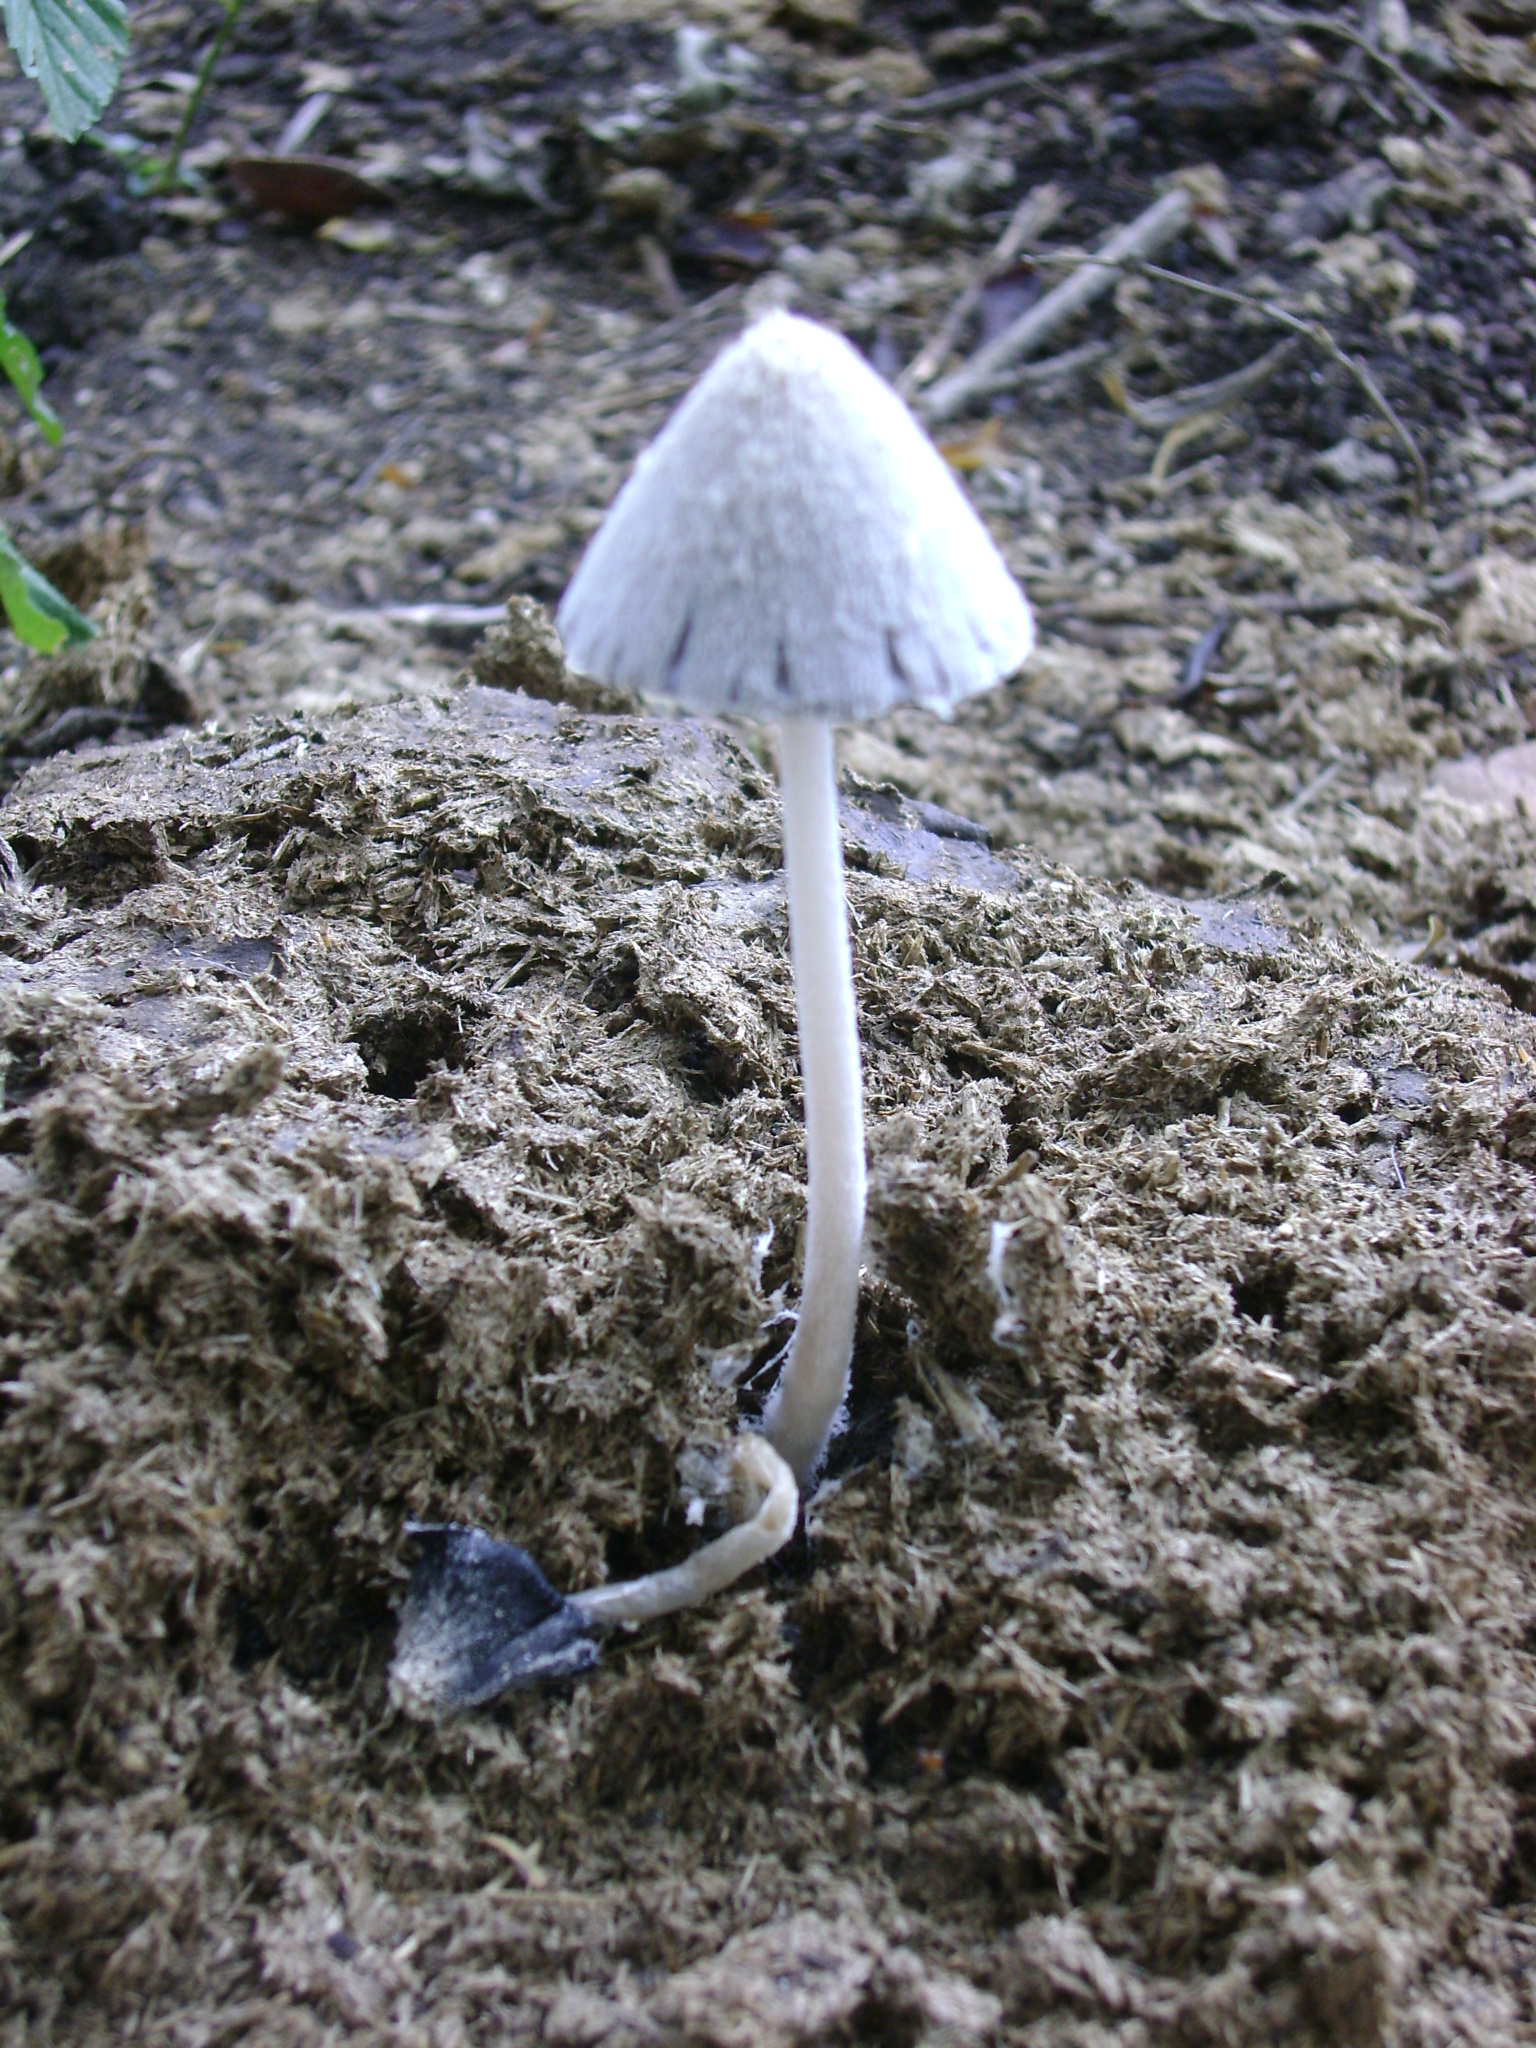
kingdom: Fungi
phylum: Basidiomycota
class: Agaricomycetes
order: Agaricales
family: Psathyrellaceae
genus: Coprinopsis
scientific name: Coprinopsis nivea
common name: Snowy inkcap
